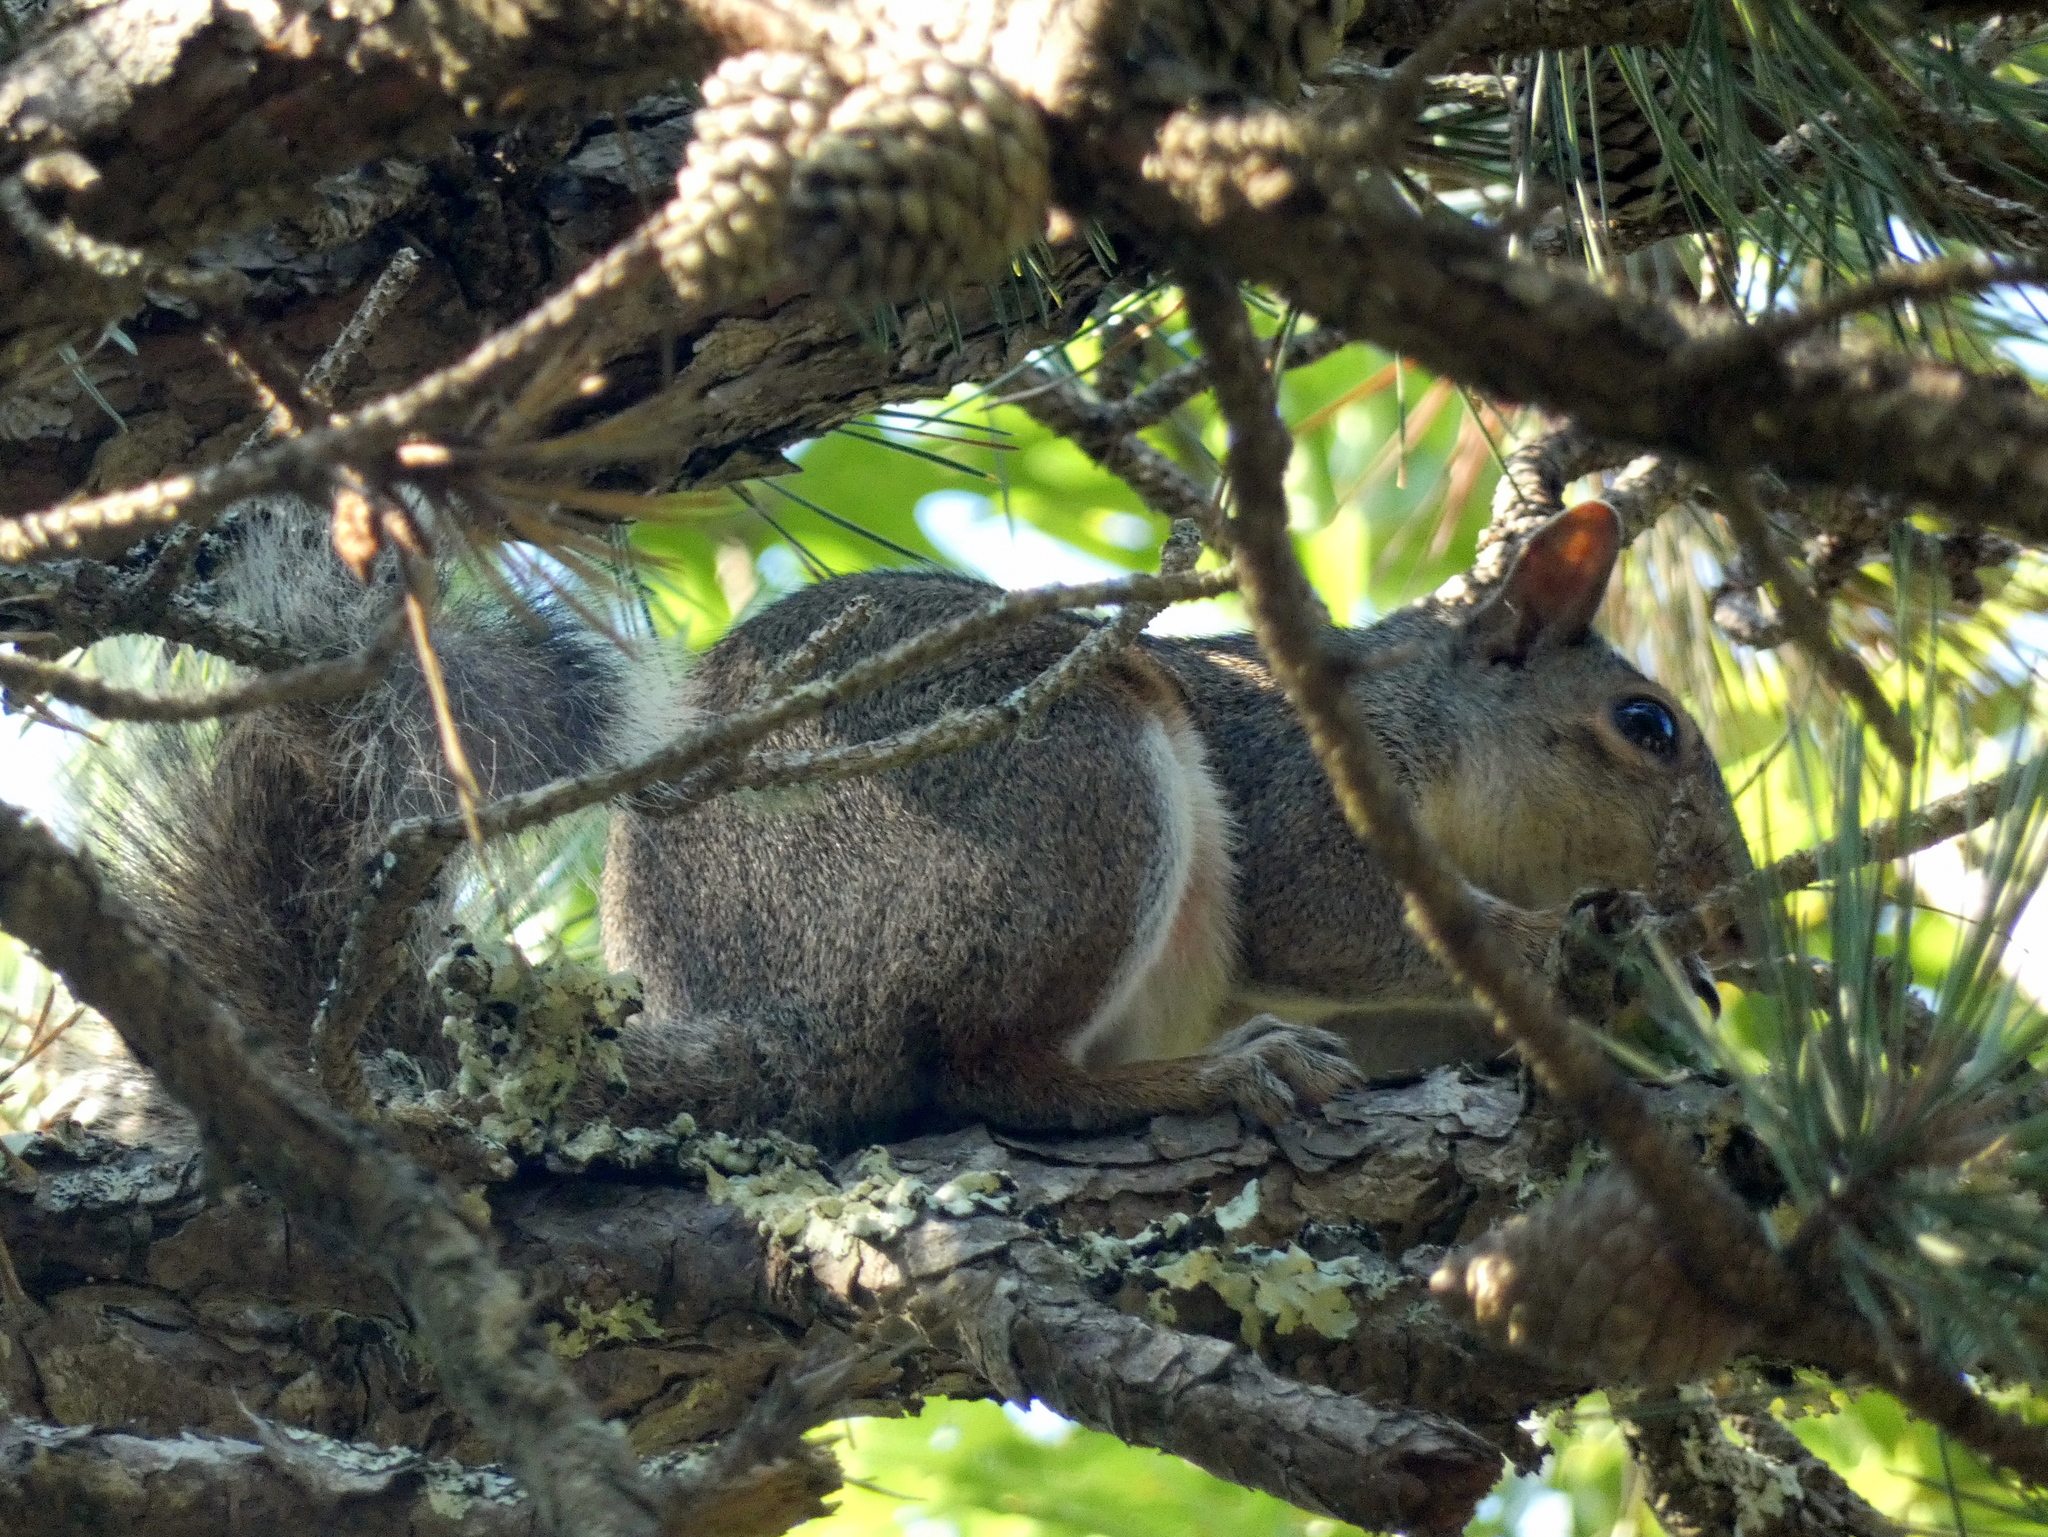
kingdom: Animalia
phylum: Chordata
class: Mammalia
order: Rodentia
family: Sciuridae
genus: Sciurus
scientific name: Sciurus carolinensis
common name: Eastern gray squirrel
